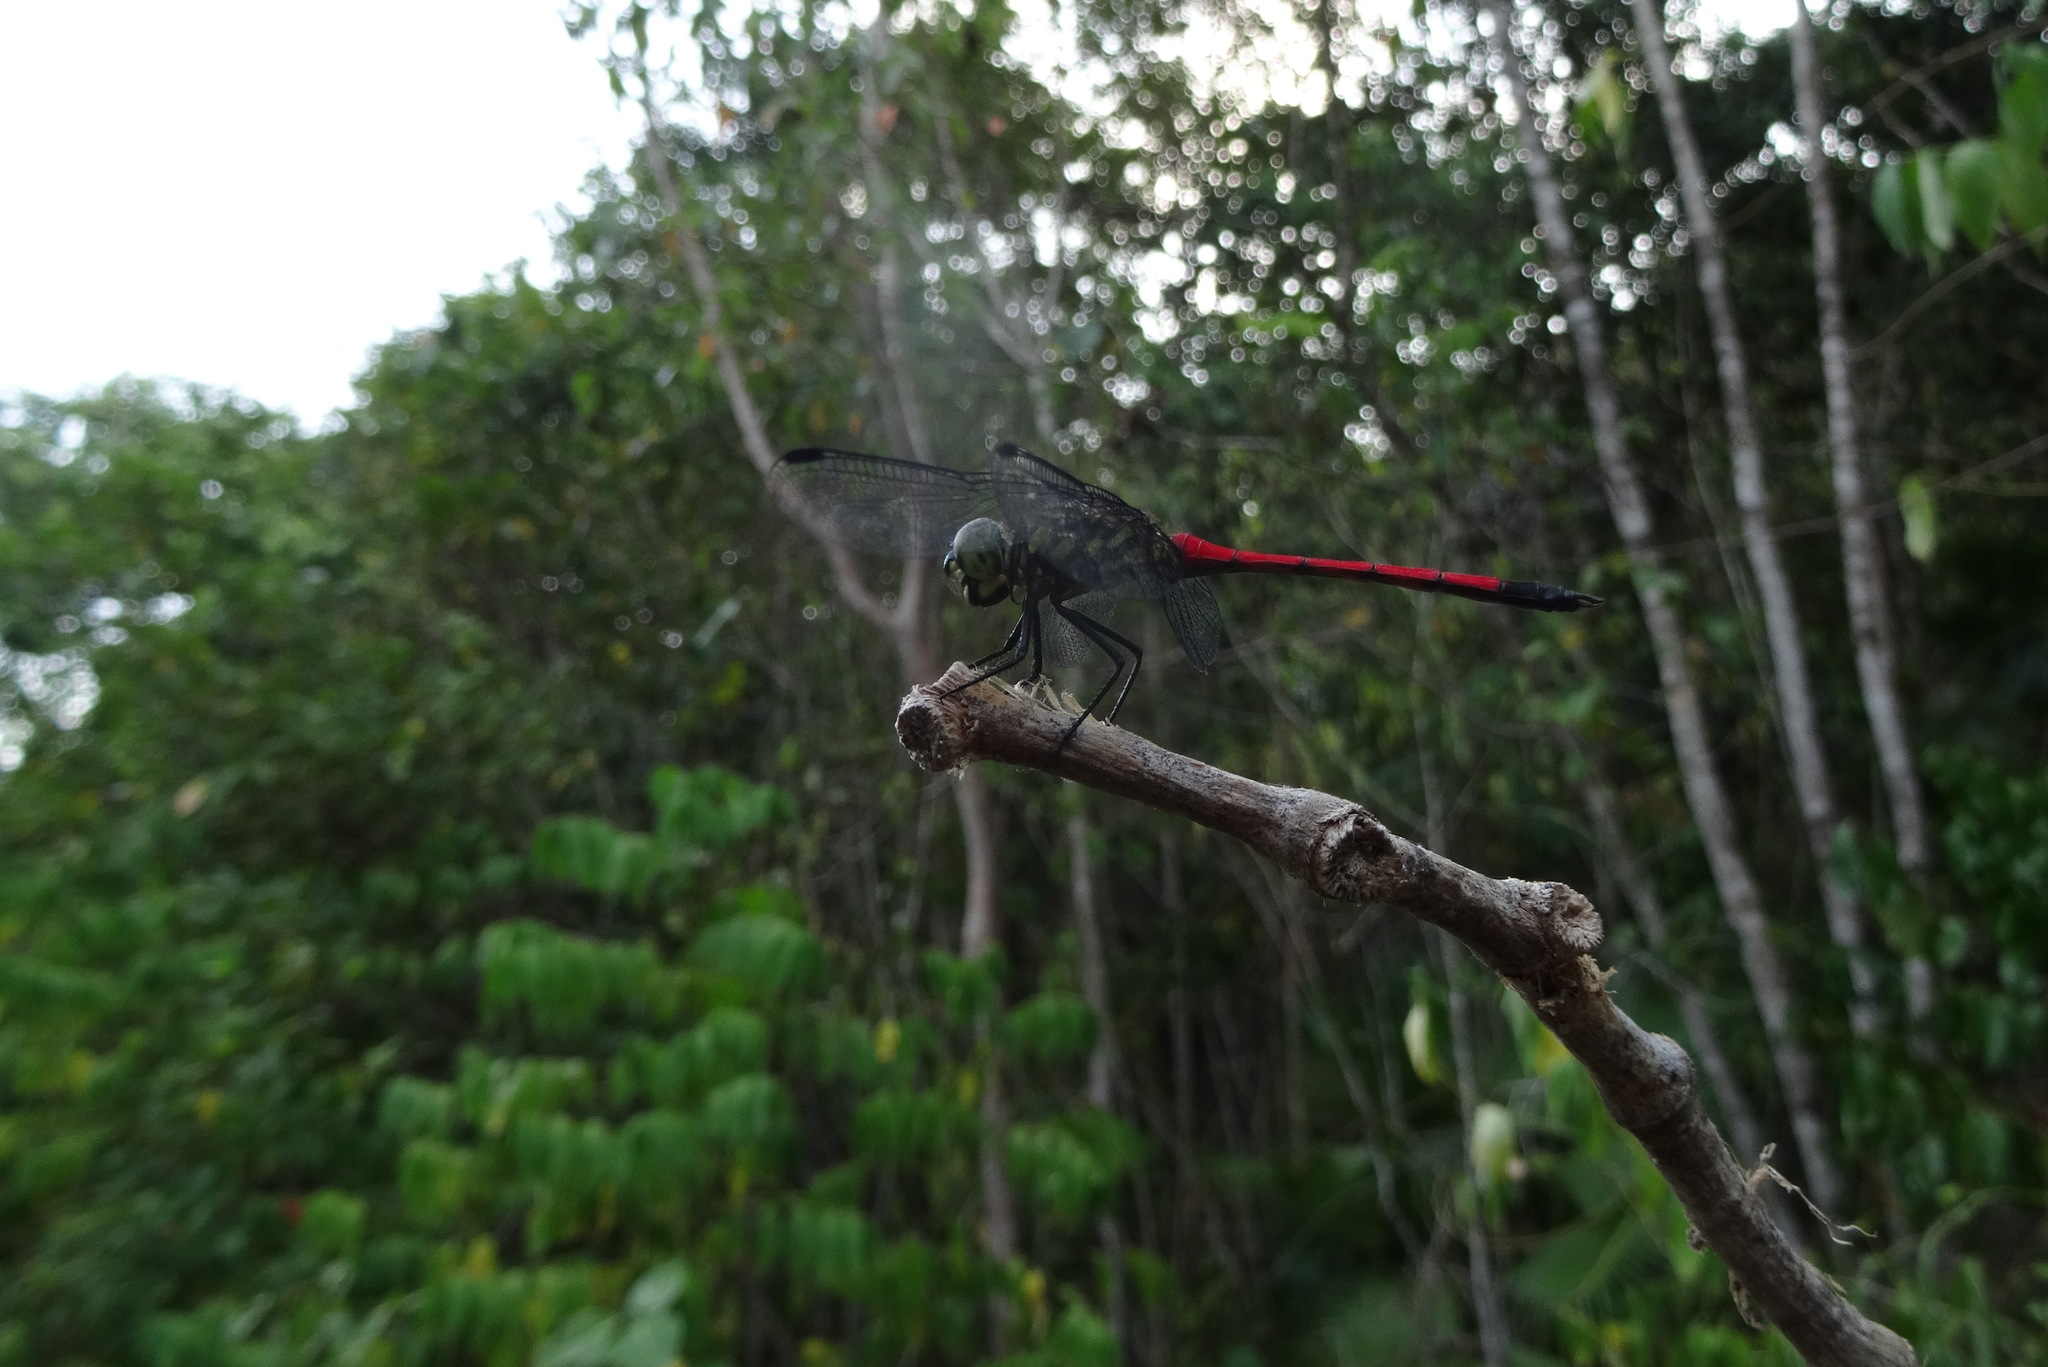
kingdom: Animalia
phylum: Arthropoda
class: Insecta
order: Odonata
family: Libellulidae
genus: Agrionoptera
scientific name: Agrionoptera insignis
